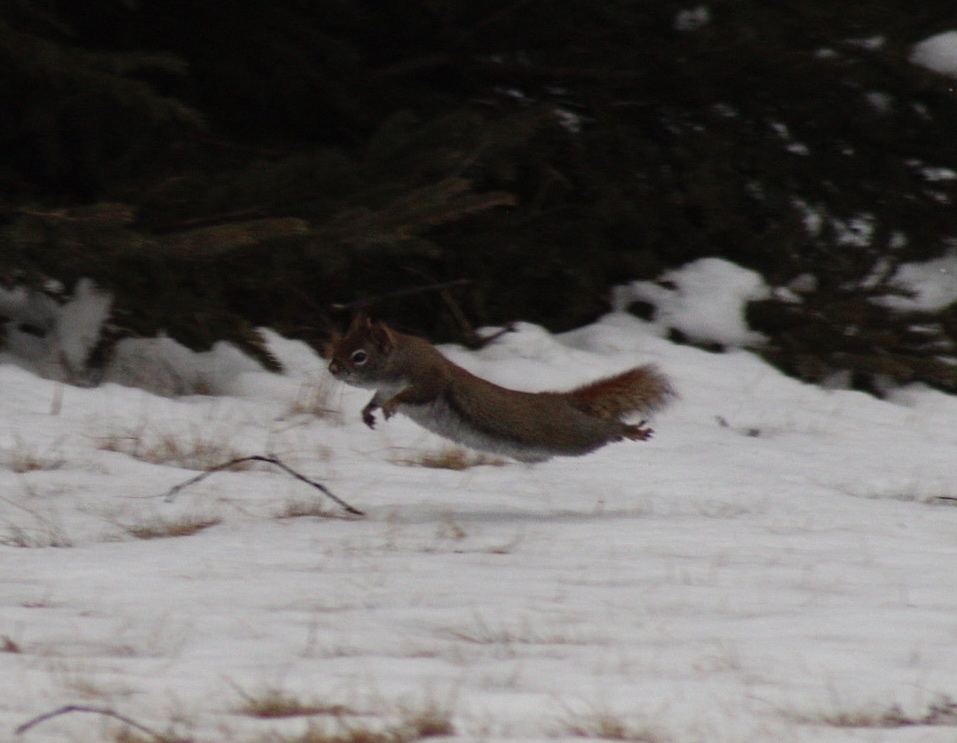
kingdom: Animalia
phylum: Chordata
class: Mammalia
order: Rodentia
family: Sciuridae
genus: Tamiasciurus
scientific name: Tamiasciurus hudsonicus
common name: Red squirrel
